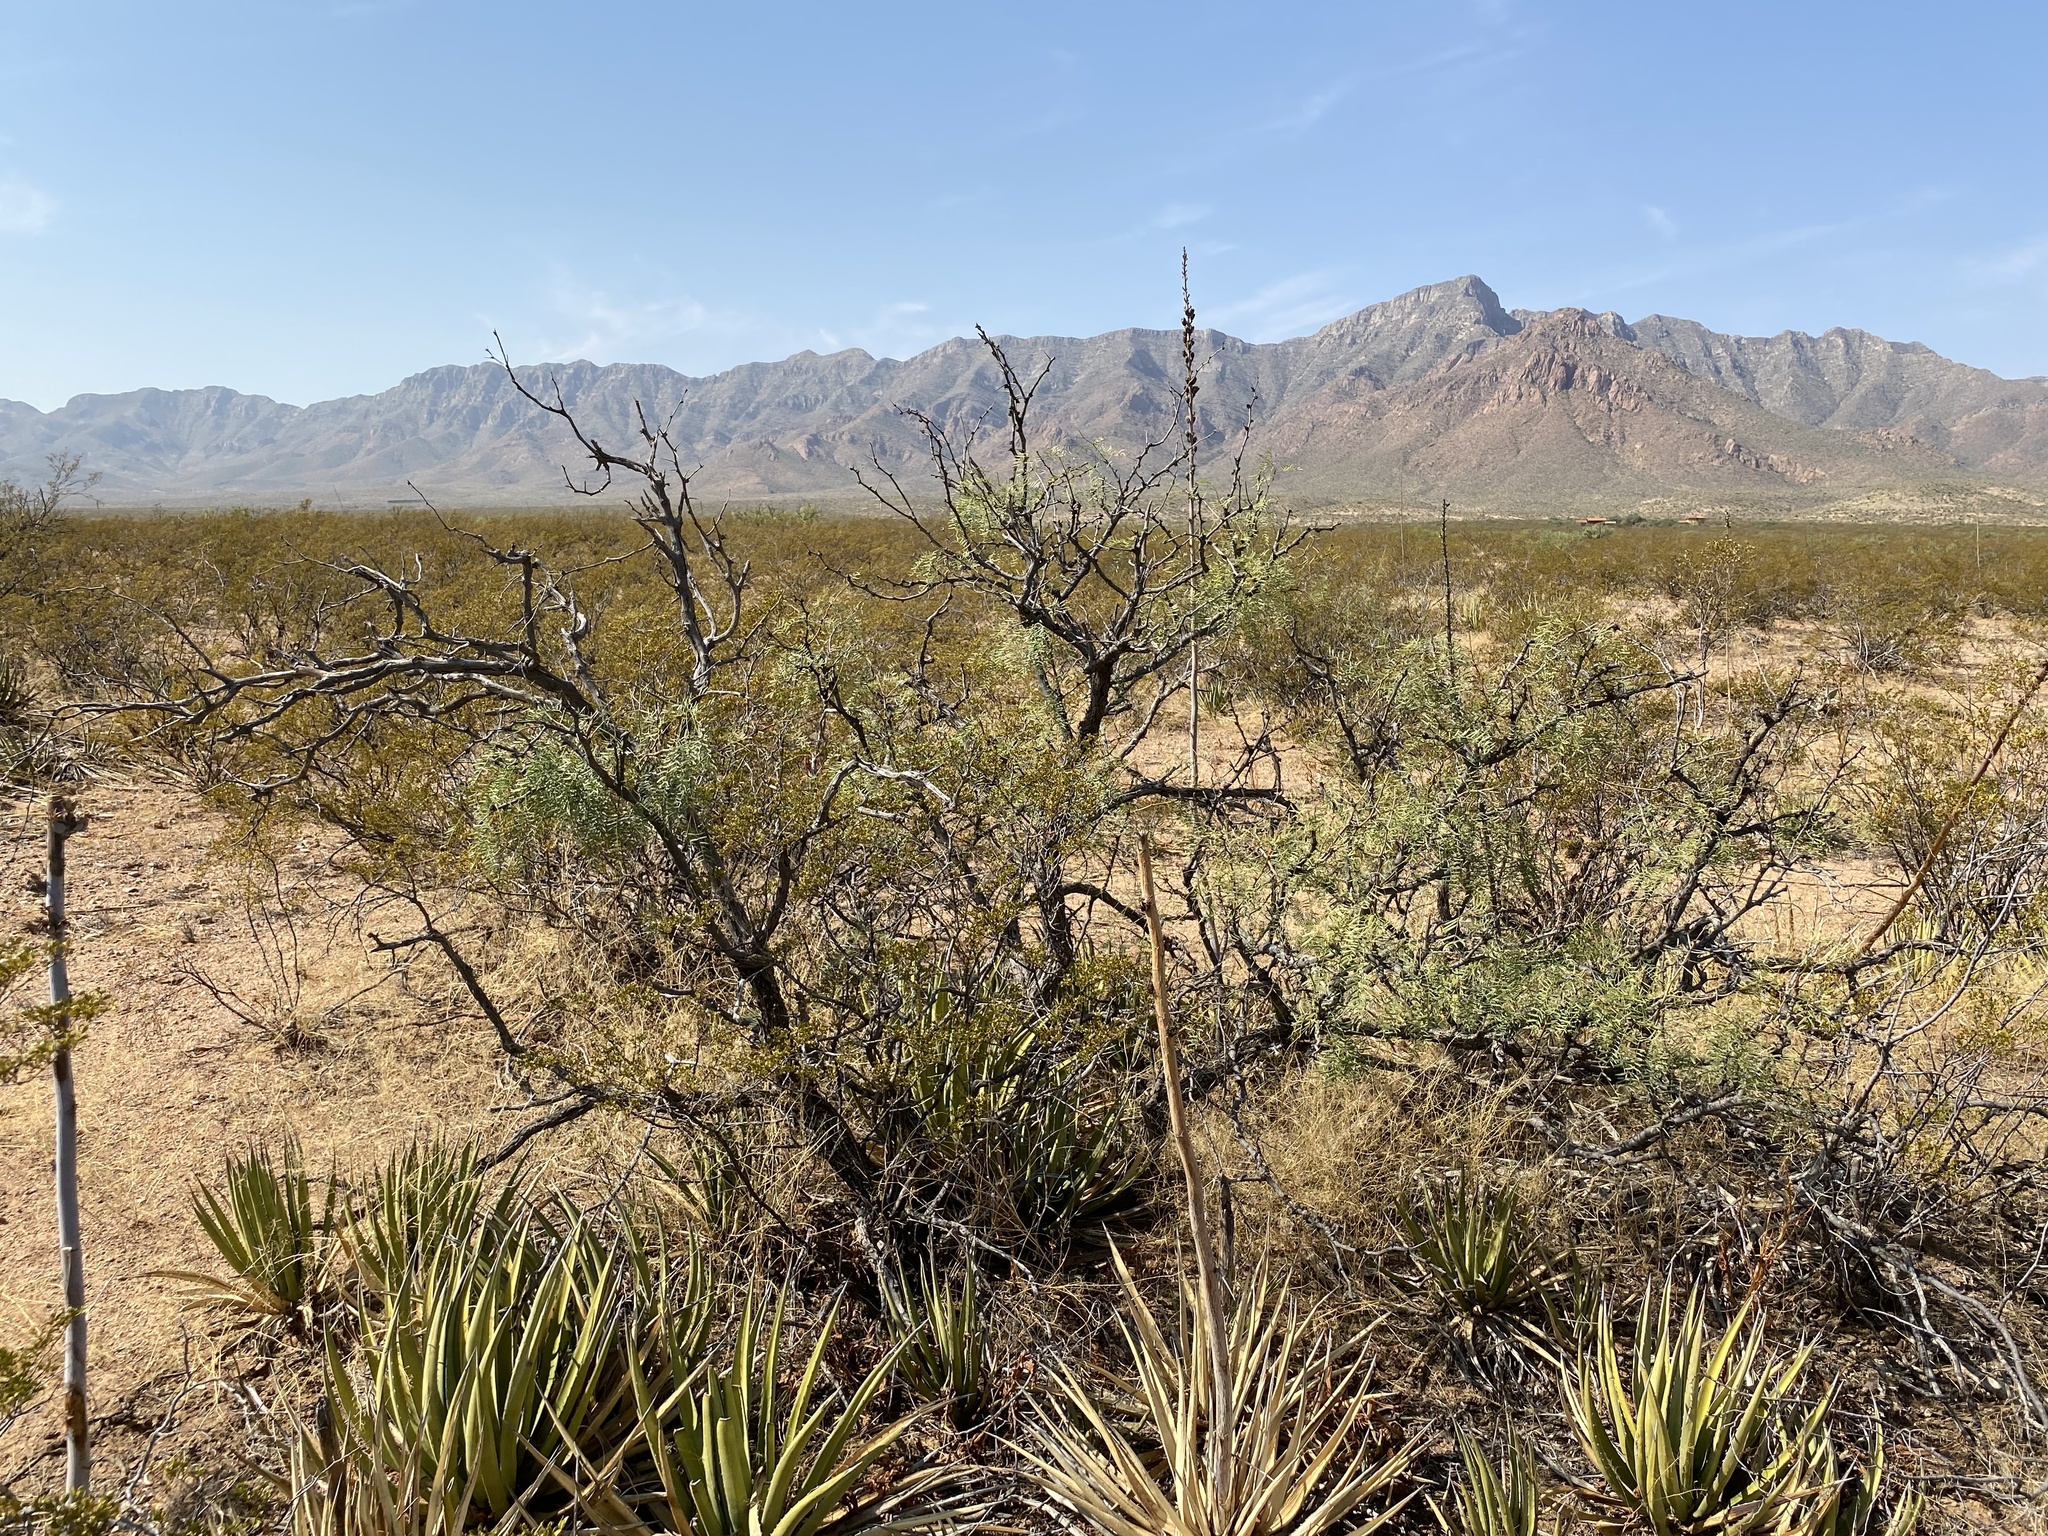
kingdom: Plantae
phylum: Tracheophyta
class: Liliopsida
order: Asparagales
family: Asparagaceae
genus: Agave
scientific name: Agave lechuguilla
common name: Lecheguilla agave
